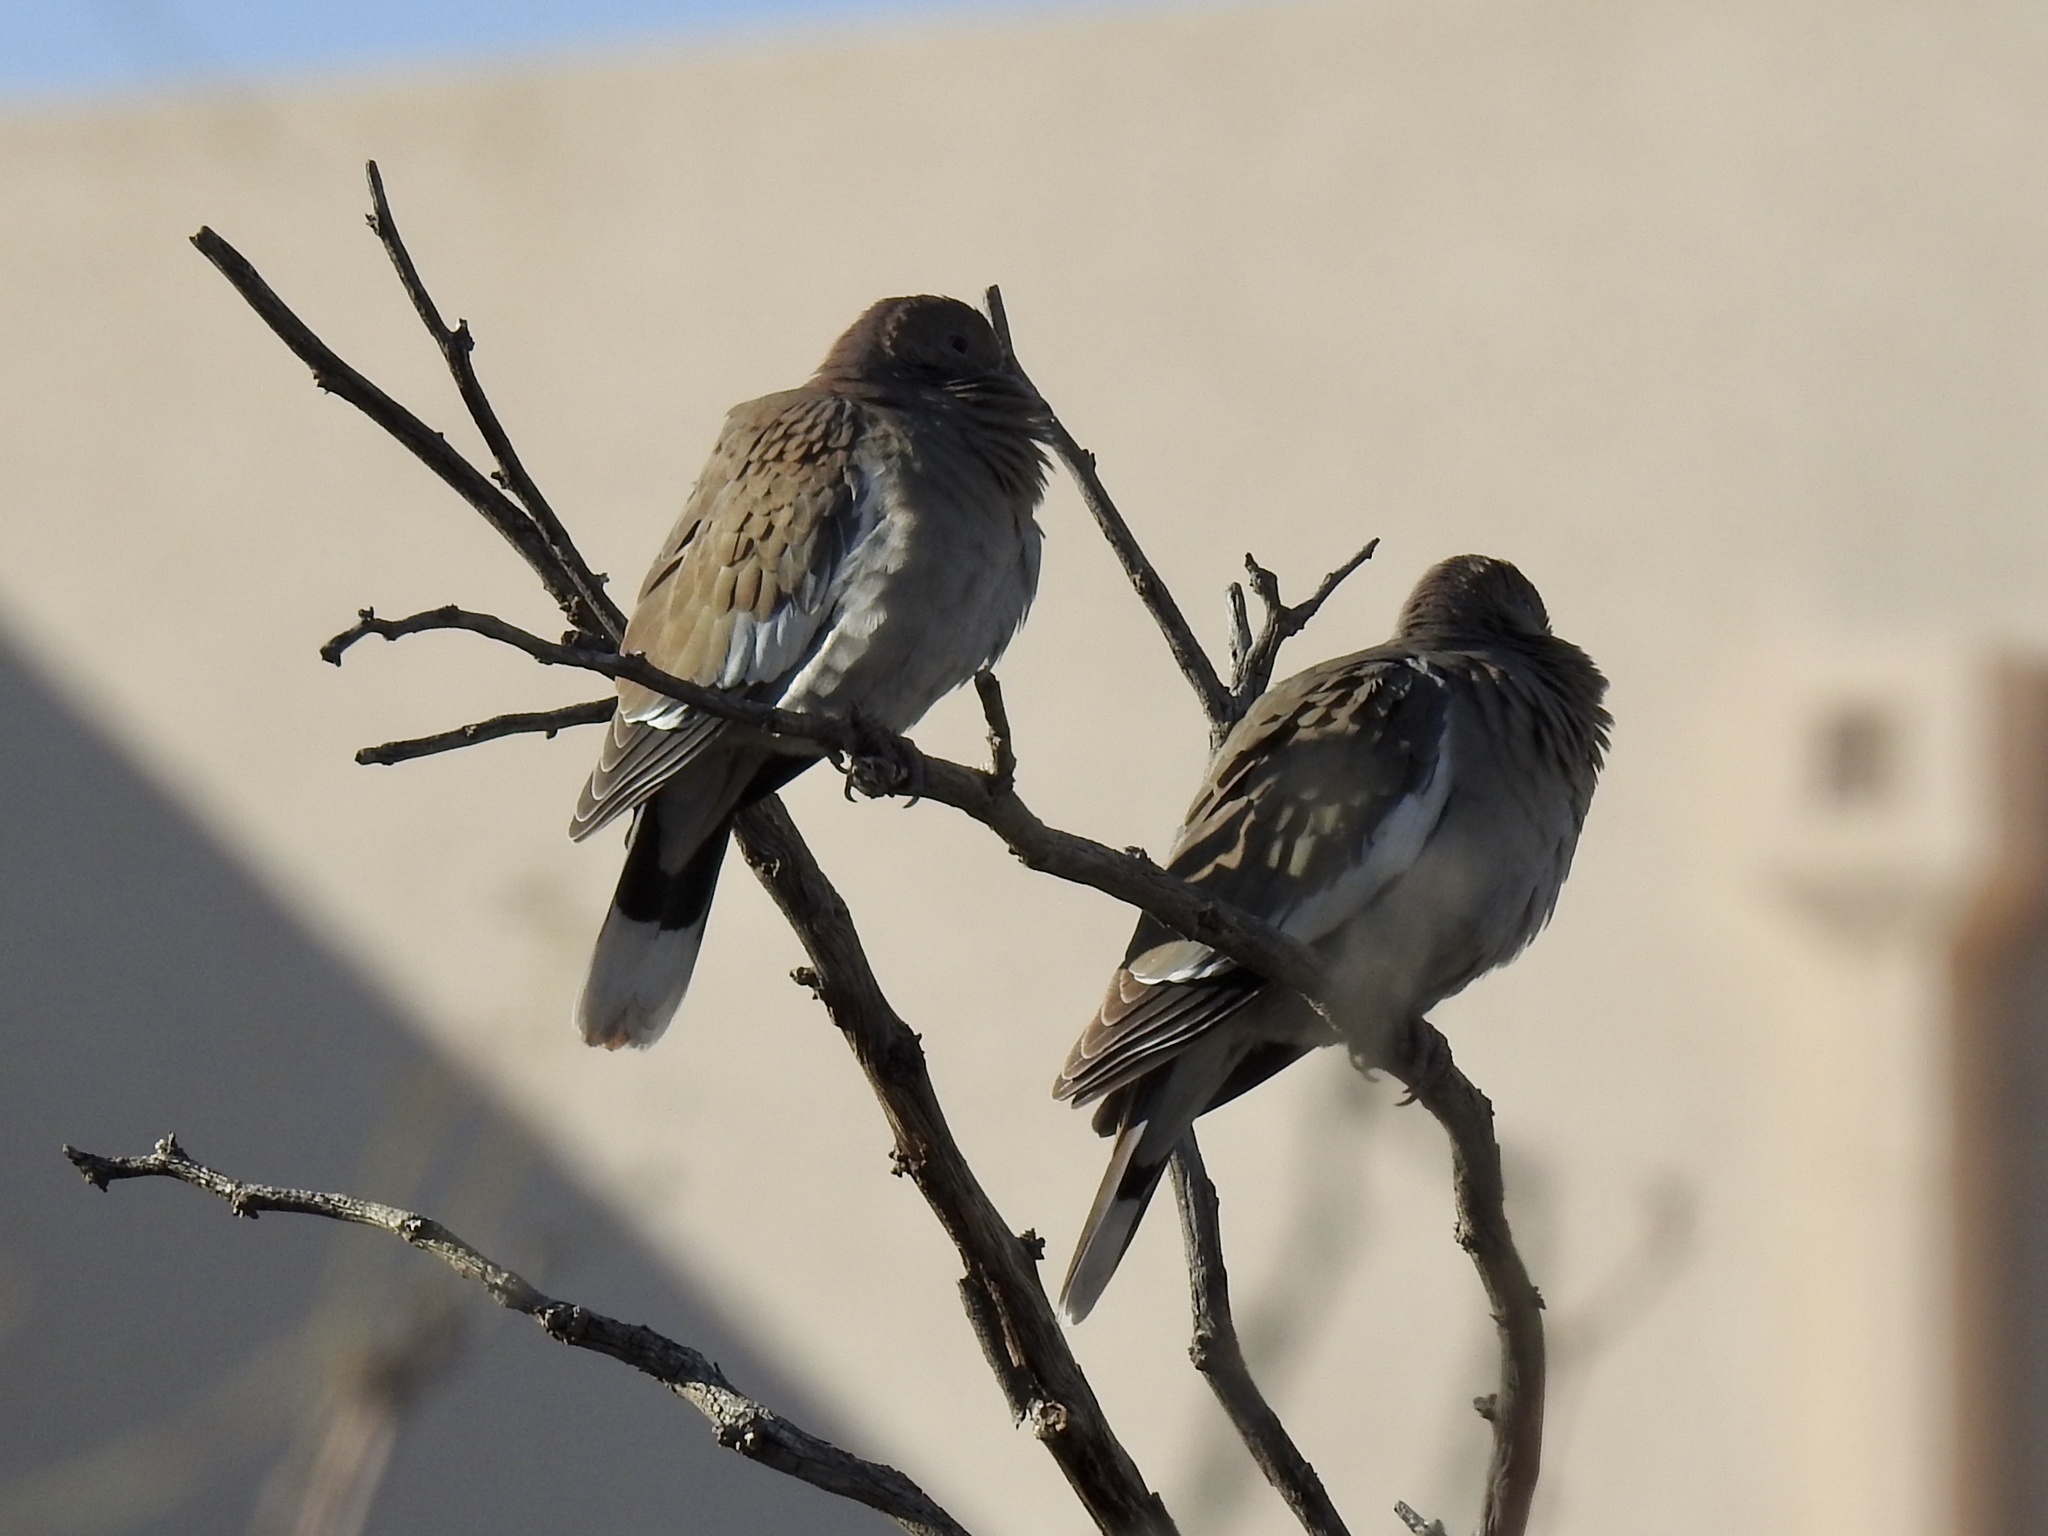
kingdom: Animalia
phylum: Chordata
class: Aves
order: Columbiformes
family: Columbidae
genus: Zenaida
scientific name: Zenaida asiatica
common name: White-winged dove
